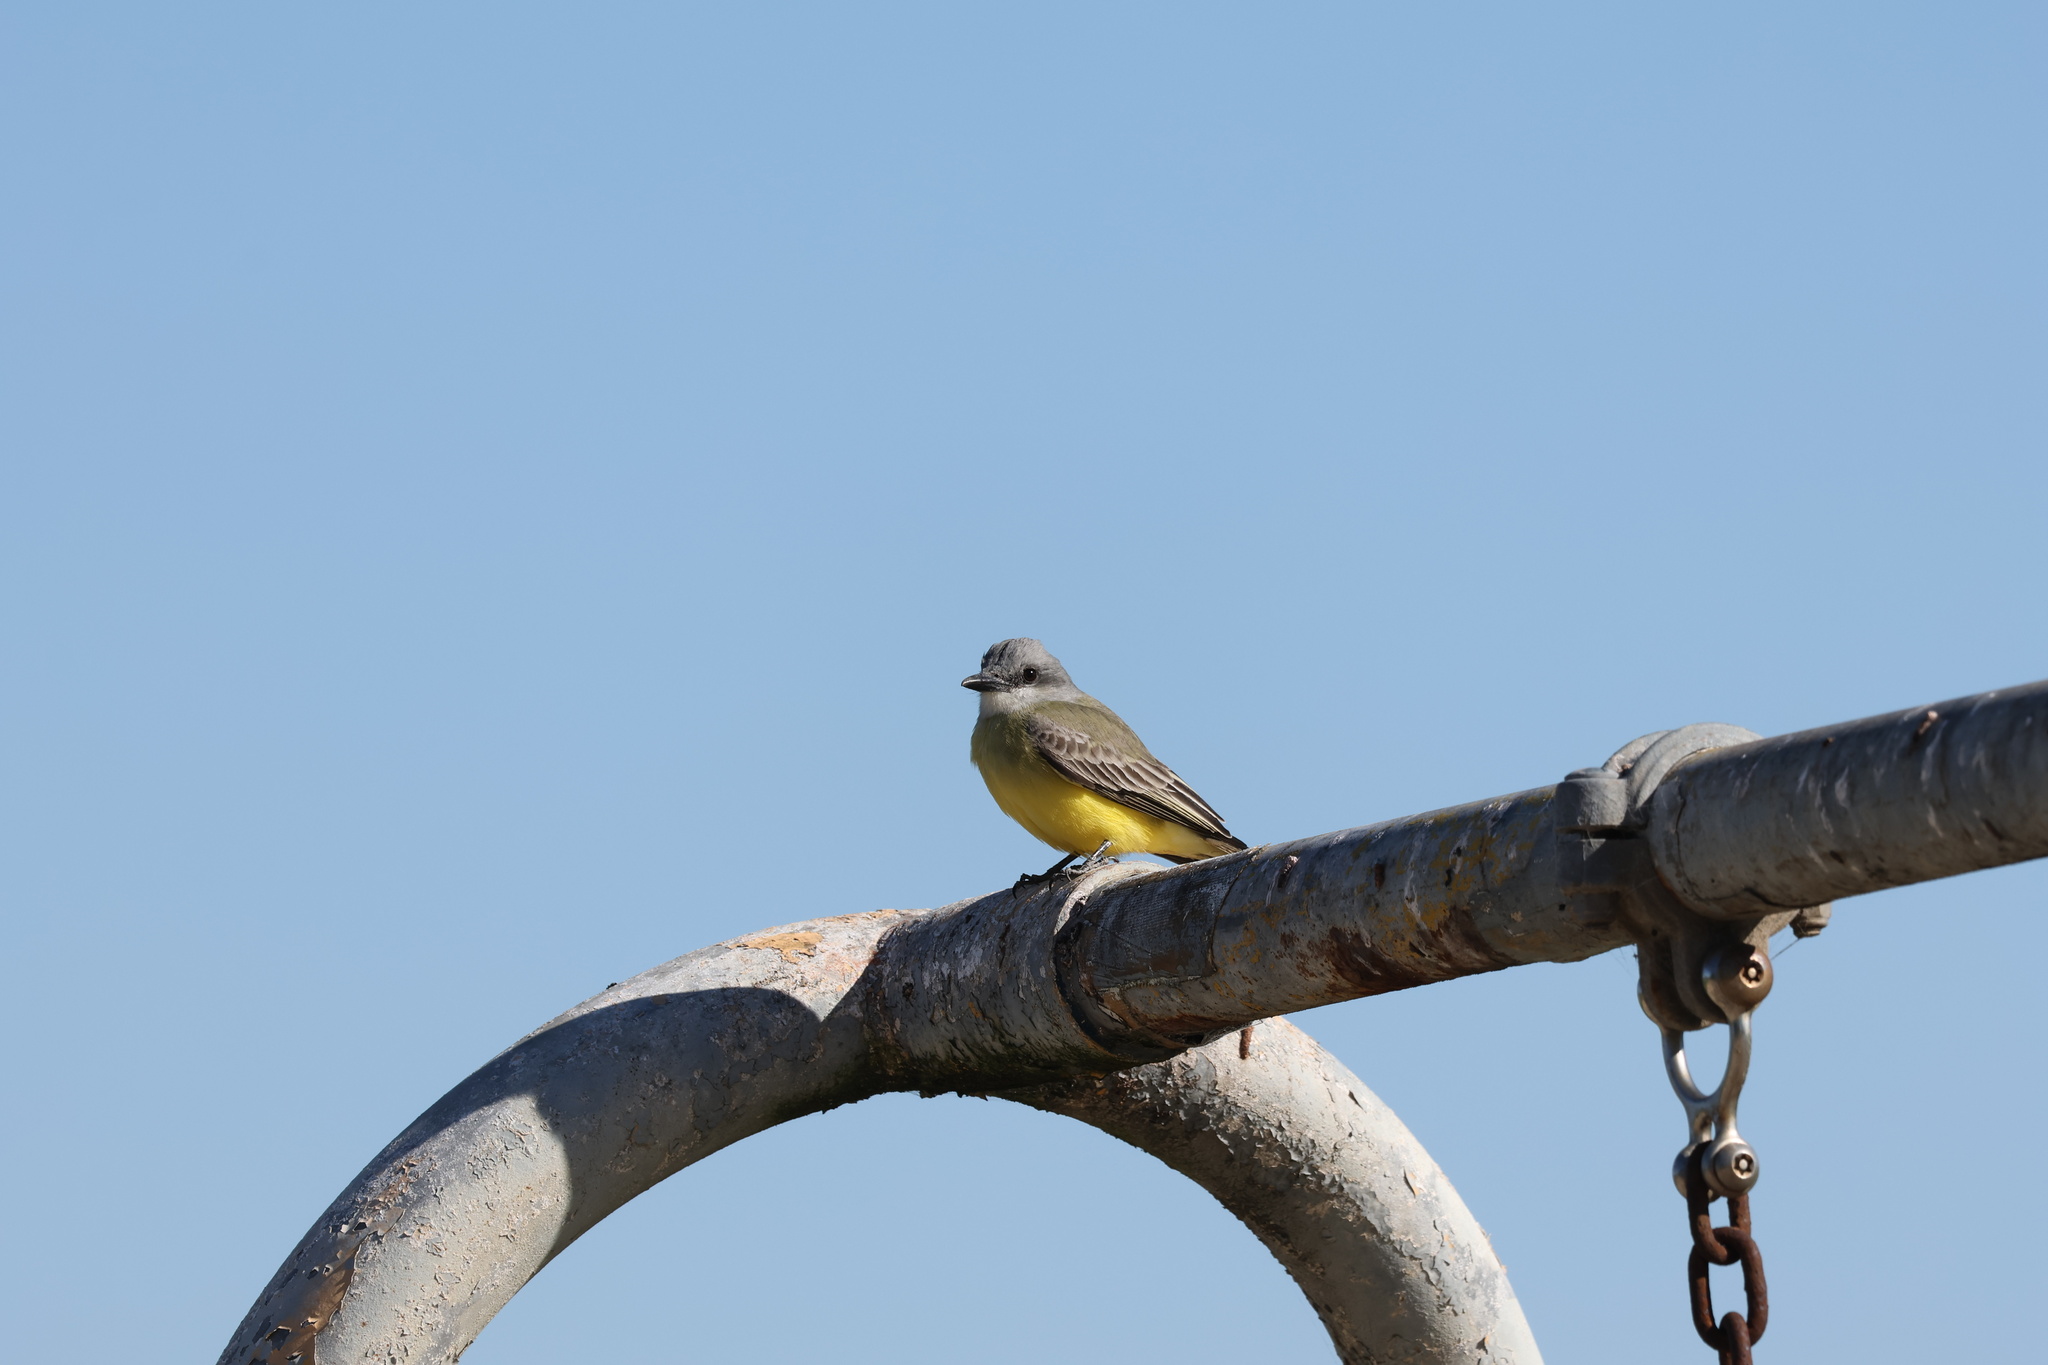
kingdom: Animalia
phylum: Chordata
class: Aves
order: Passeriformes
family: Tyrannidae
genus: Tyrannus
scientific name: Tyrannus melancholicus
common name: Tropical kingbird
